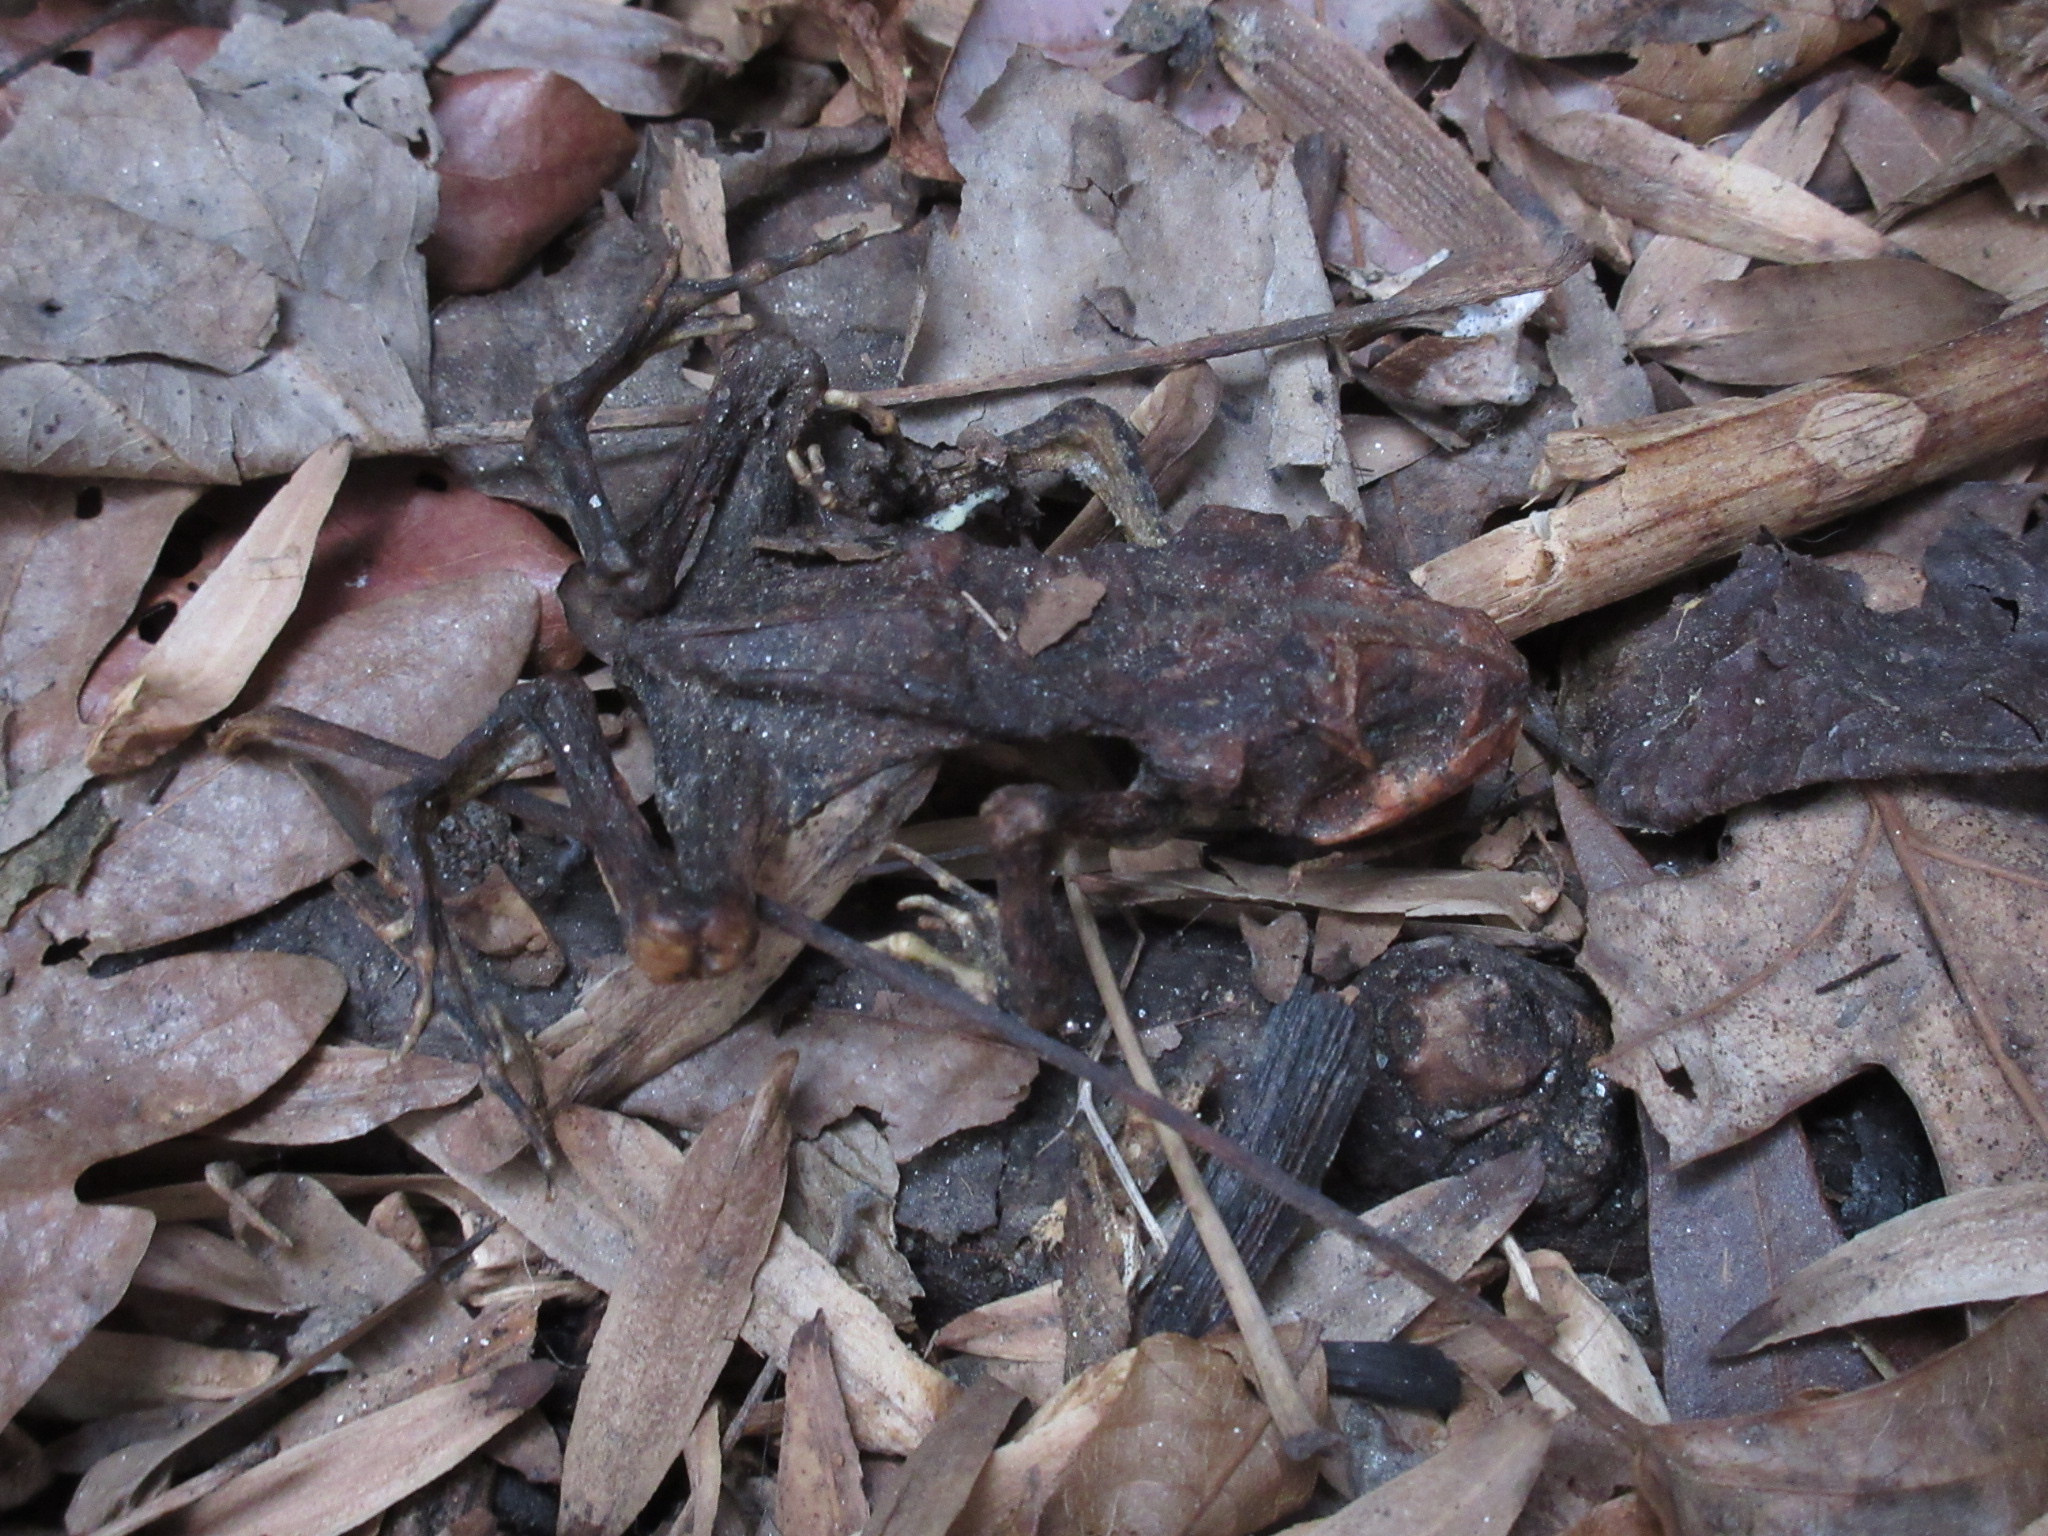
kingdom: Animalia
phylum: Chordata
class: Amphibia
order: Anura
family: Bufonidae
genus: Anaxyrus
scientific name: Anaxyrus
